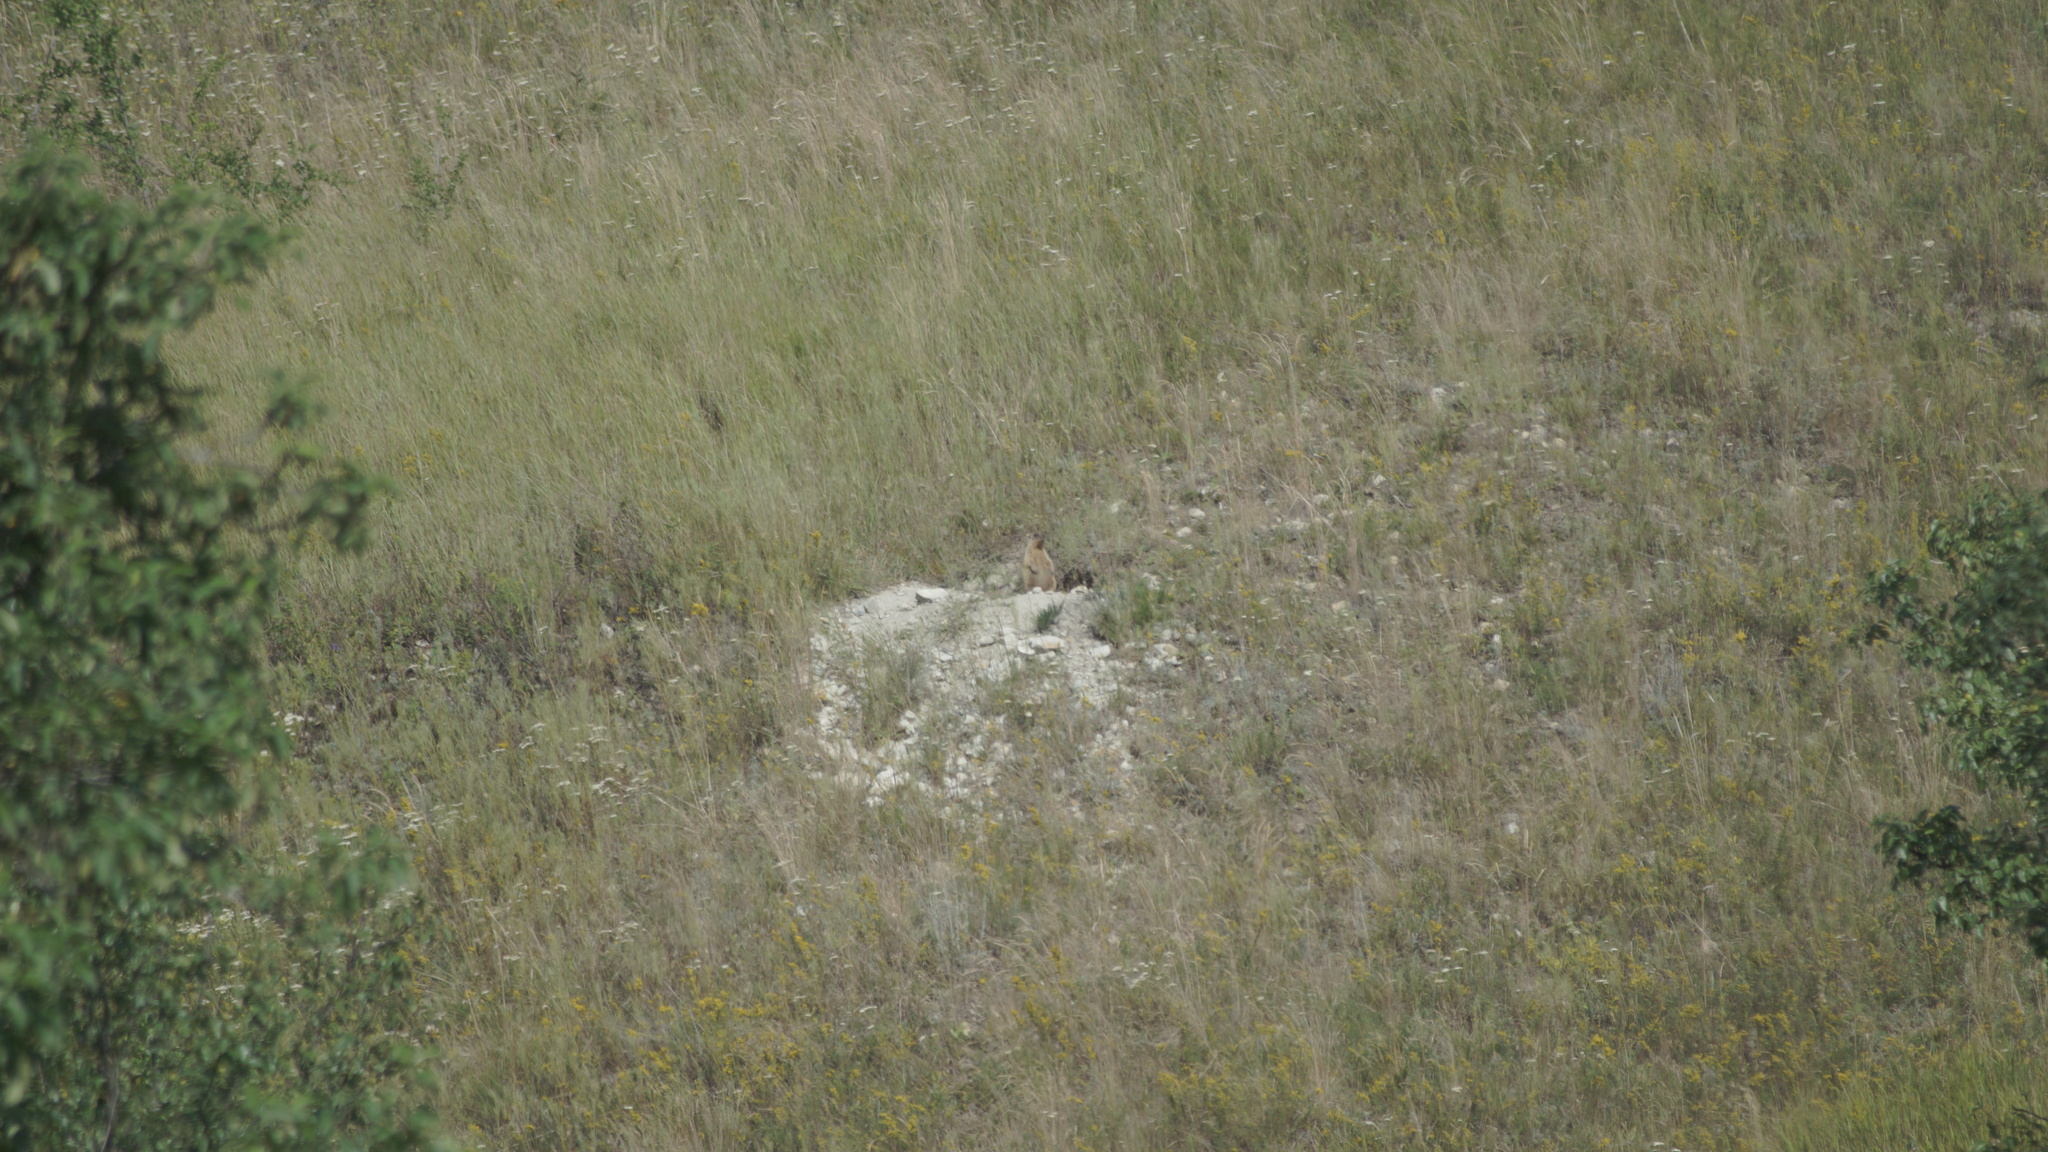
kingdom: Animalia
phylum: Chordata
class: Mammalia
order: Rodentia
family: Sciuridae
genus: Marmota
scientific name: Marmota bobak
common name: Bobak marmot
